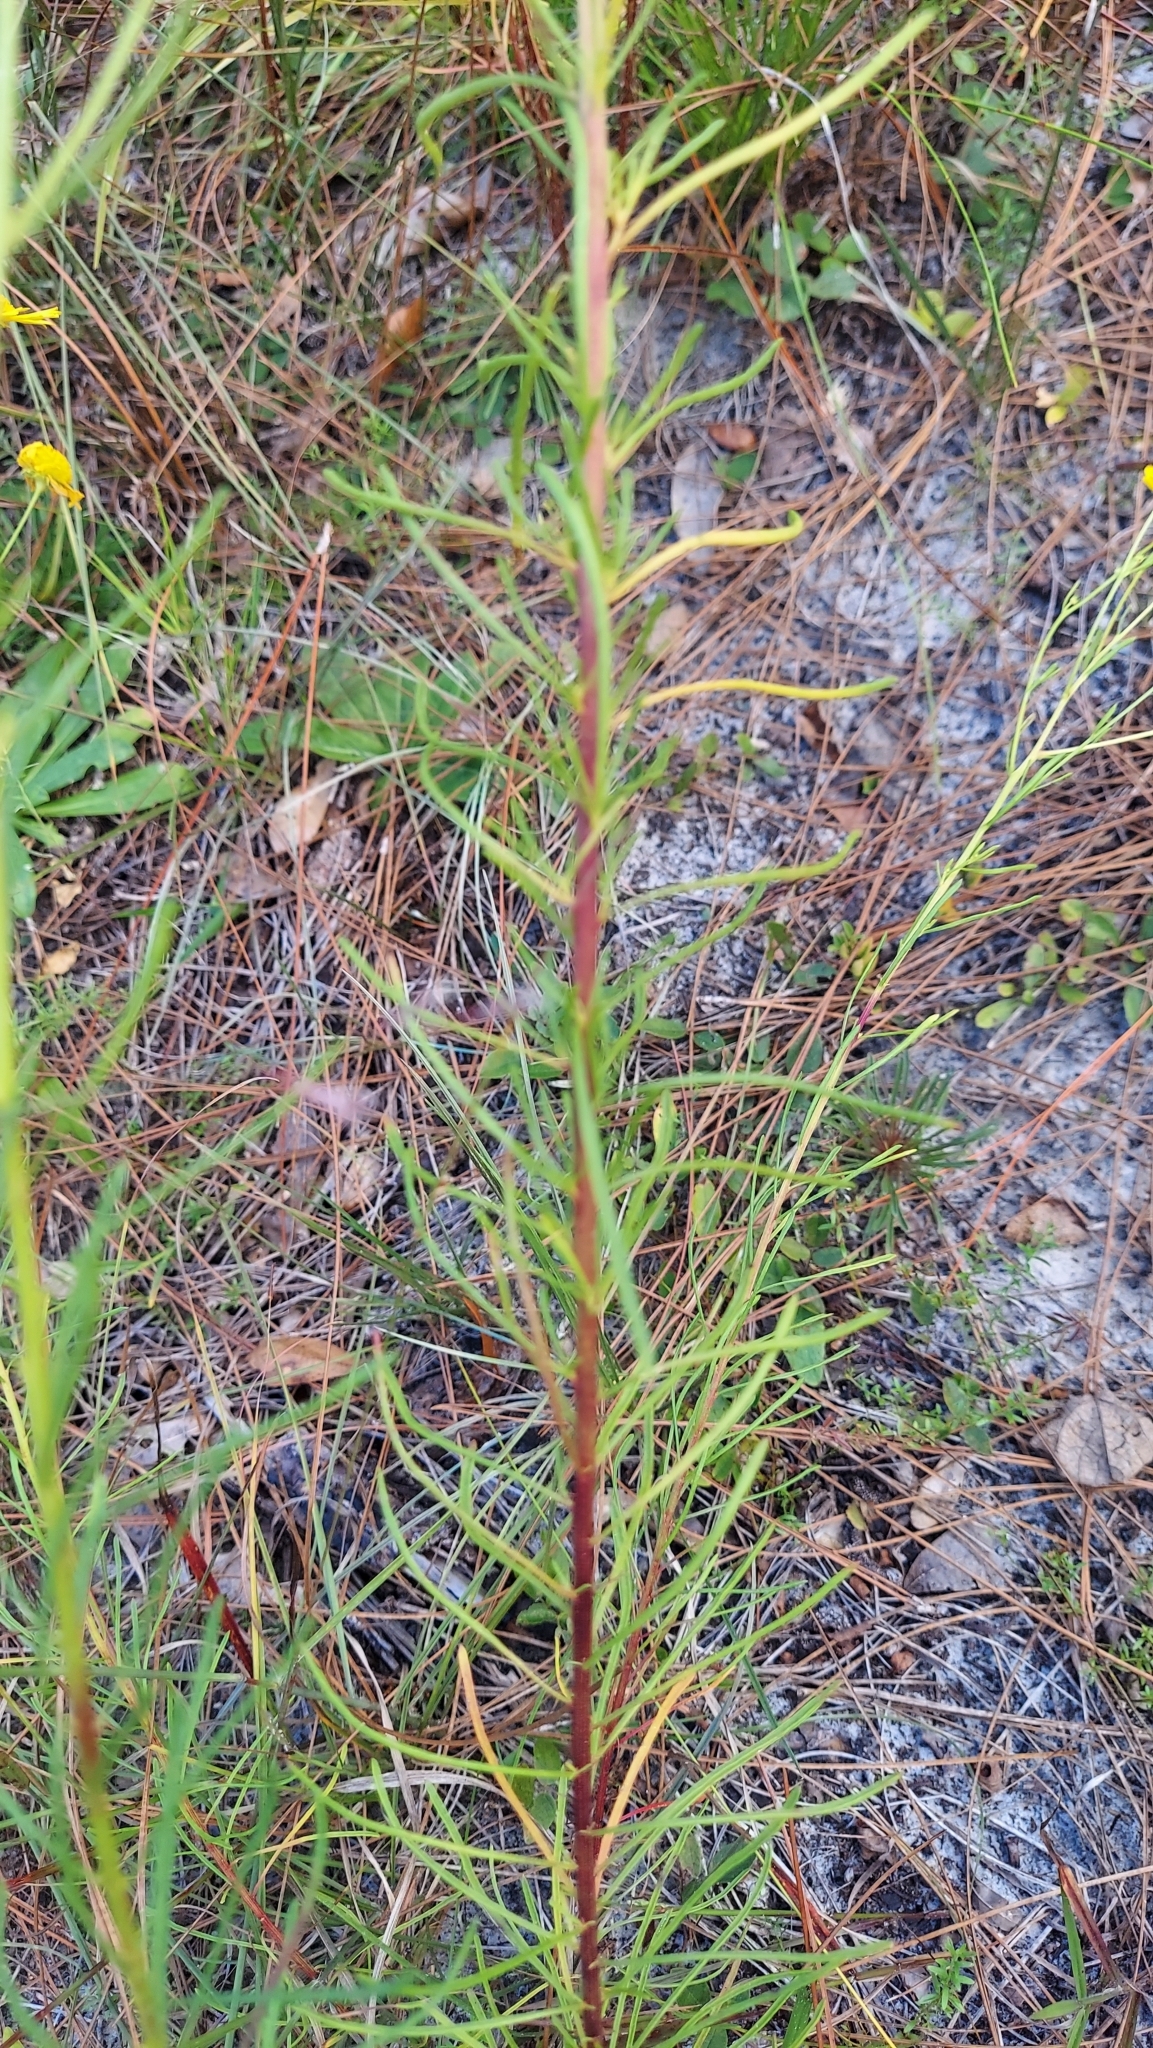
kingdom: Plantae
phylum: Tracheophyta
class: Magnoliopsida
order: Asterales
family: Asteraceae
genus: Balduina
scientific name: Balduina angustifolia
